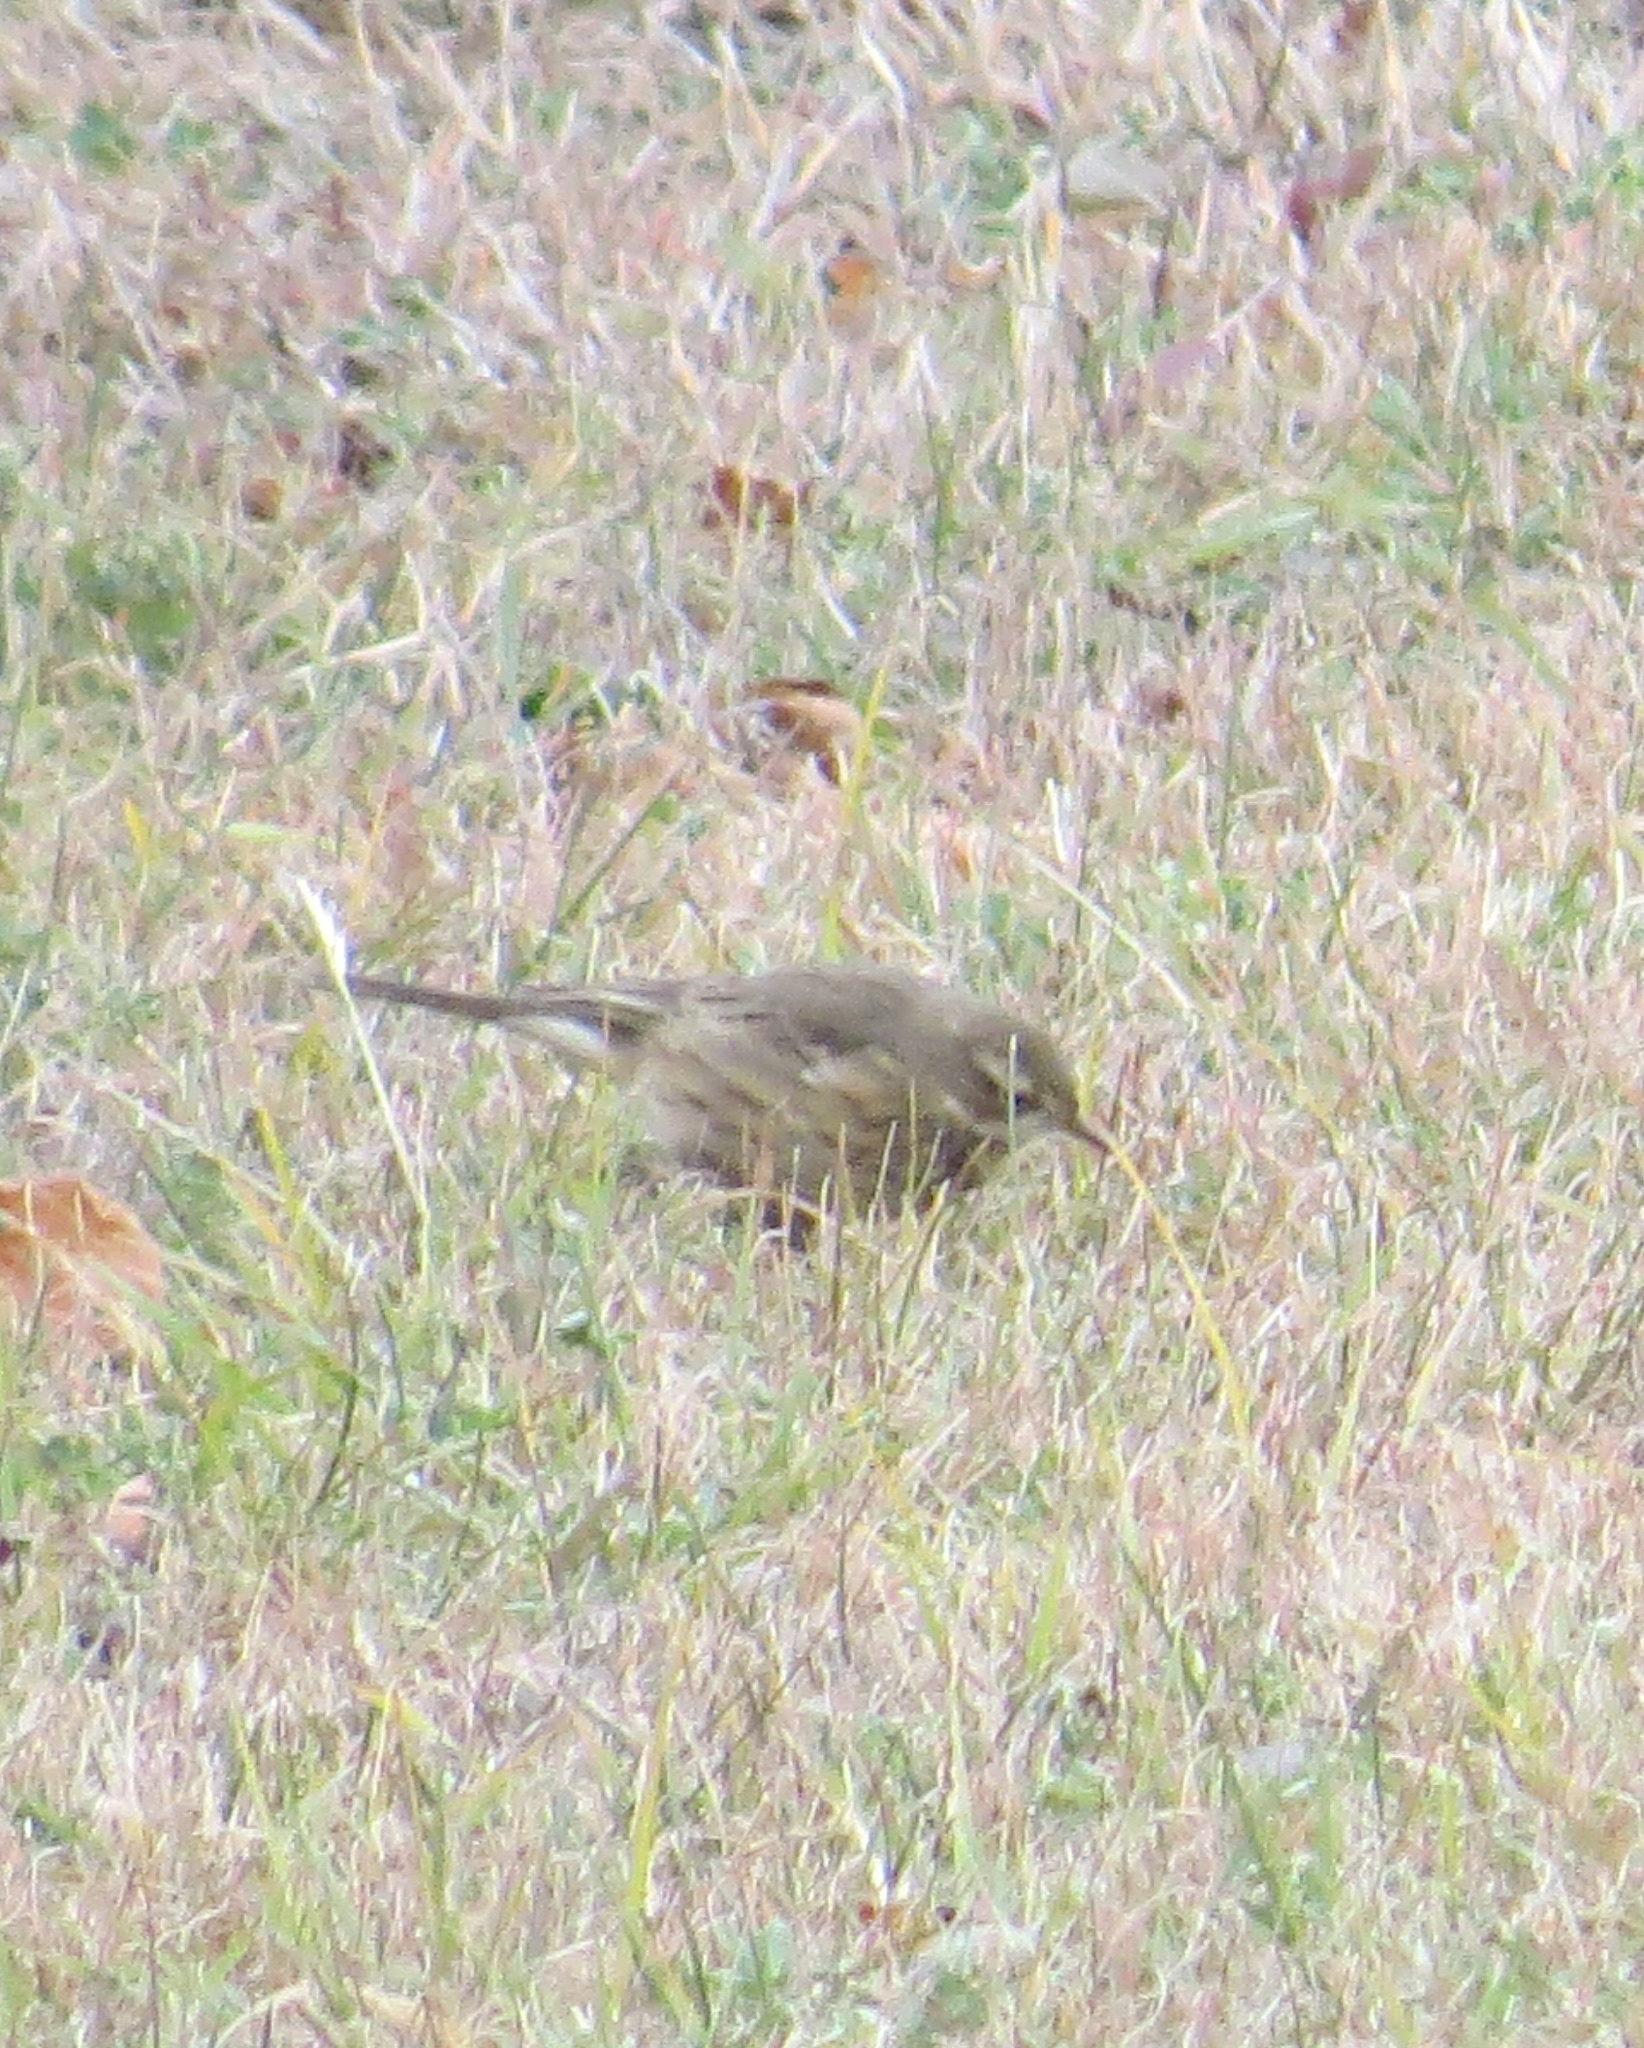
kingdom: Animalia
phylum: Chordata
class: Aves
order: Passeriformes
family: Motacillidae
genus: Anthus
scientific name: Anthus rubescens
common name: Buff-bellied pipit
